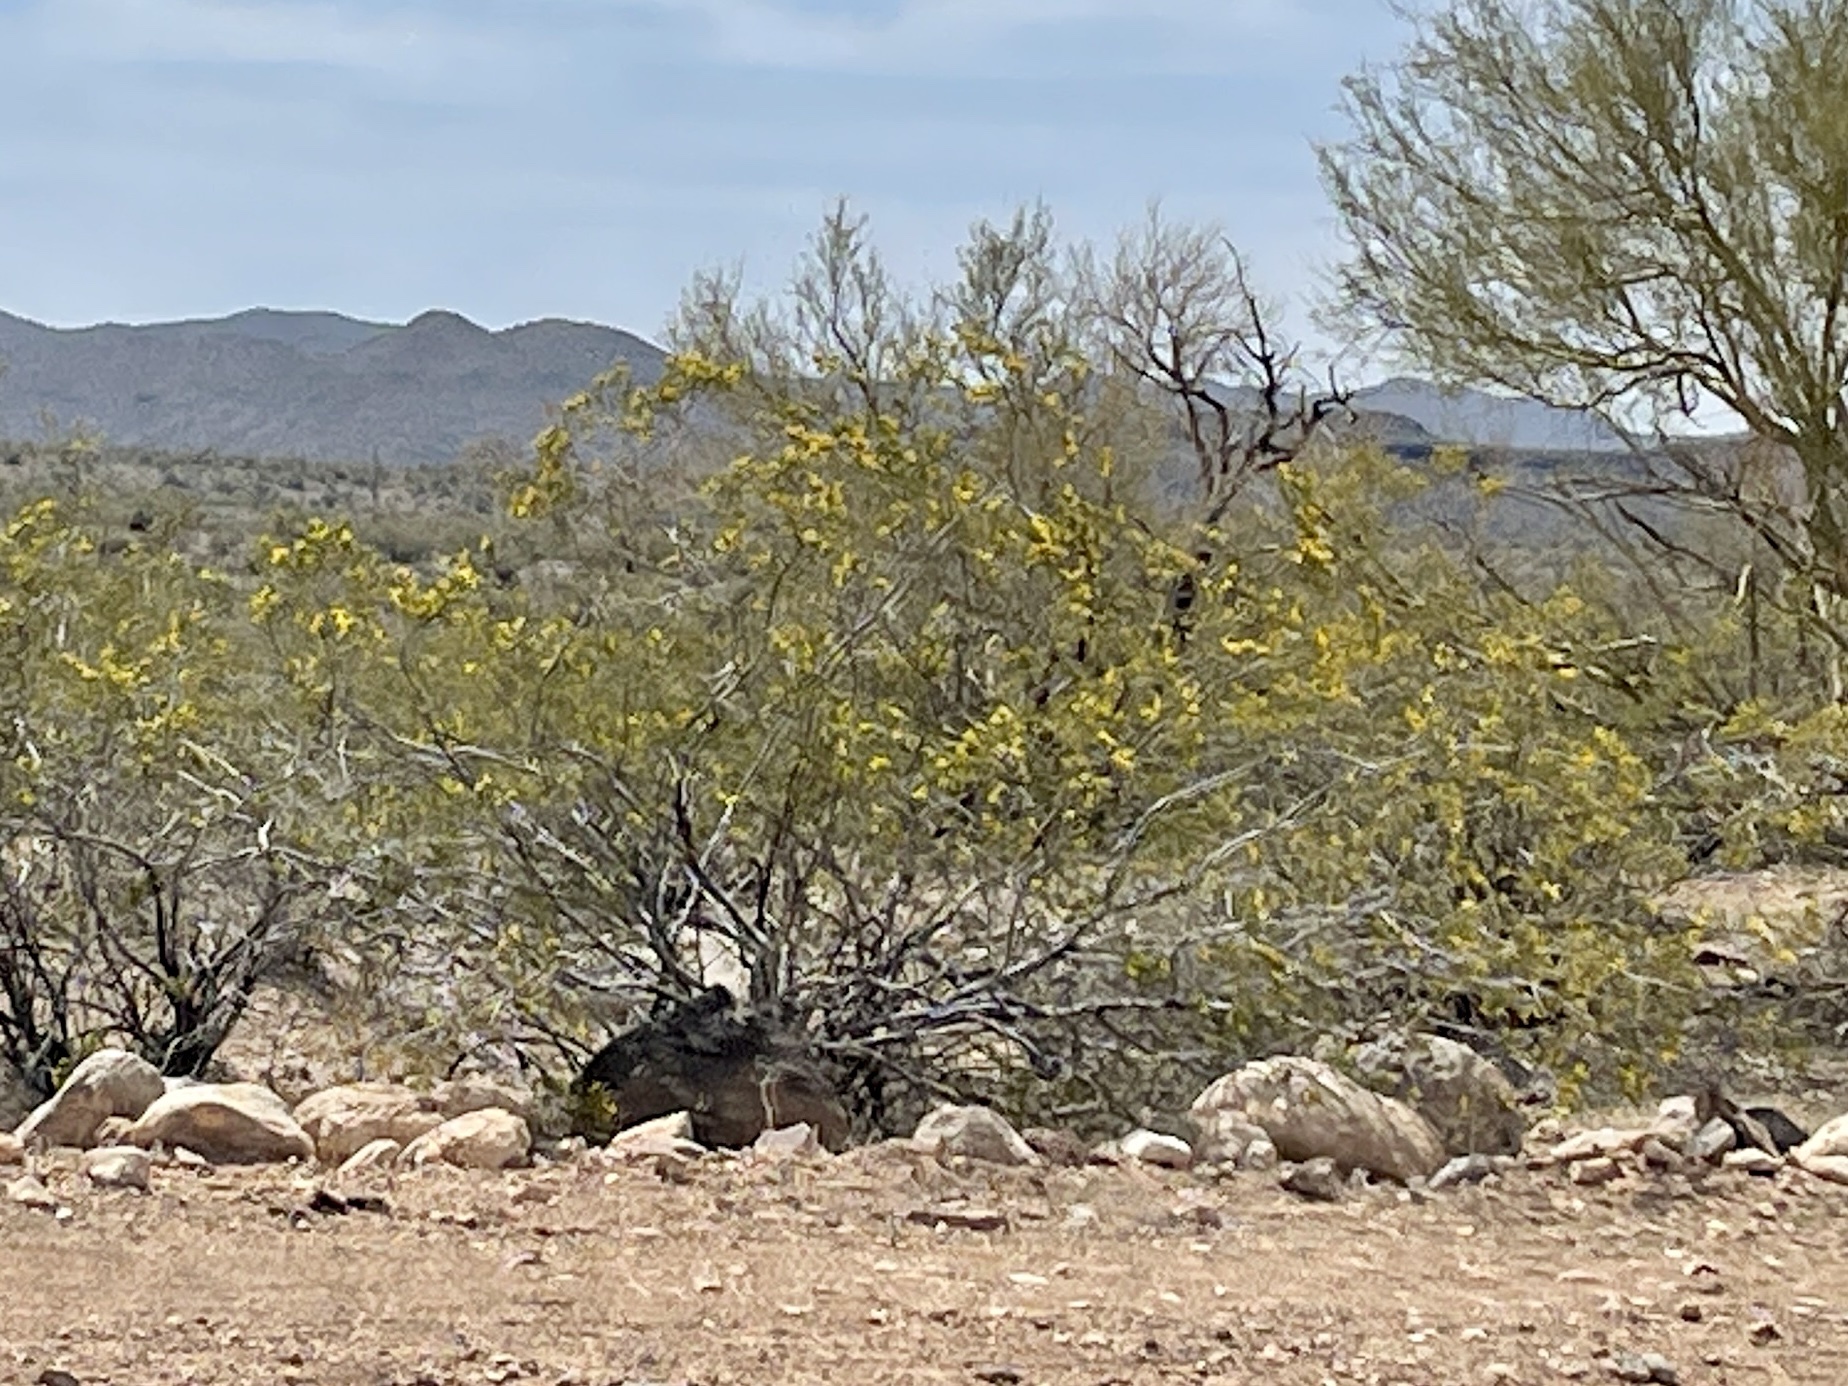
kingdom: Plantae
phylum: Tracheophyta
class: Magnoliopsida
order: Zygophyllales
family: Zygophyllaceae
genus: Larrea
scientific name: Larrea tridentata
